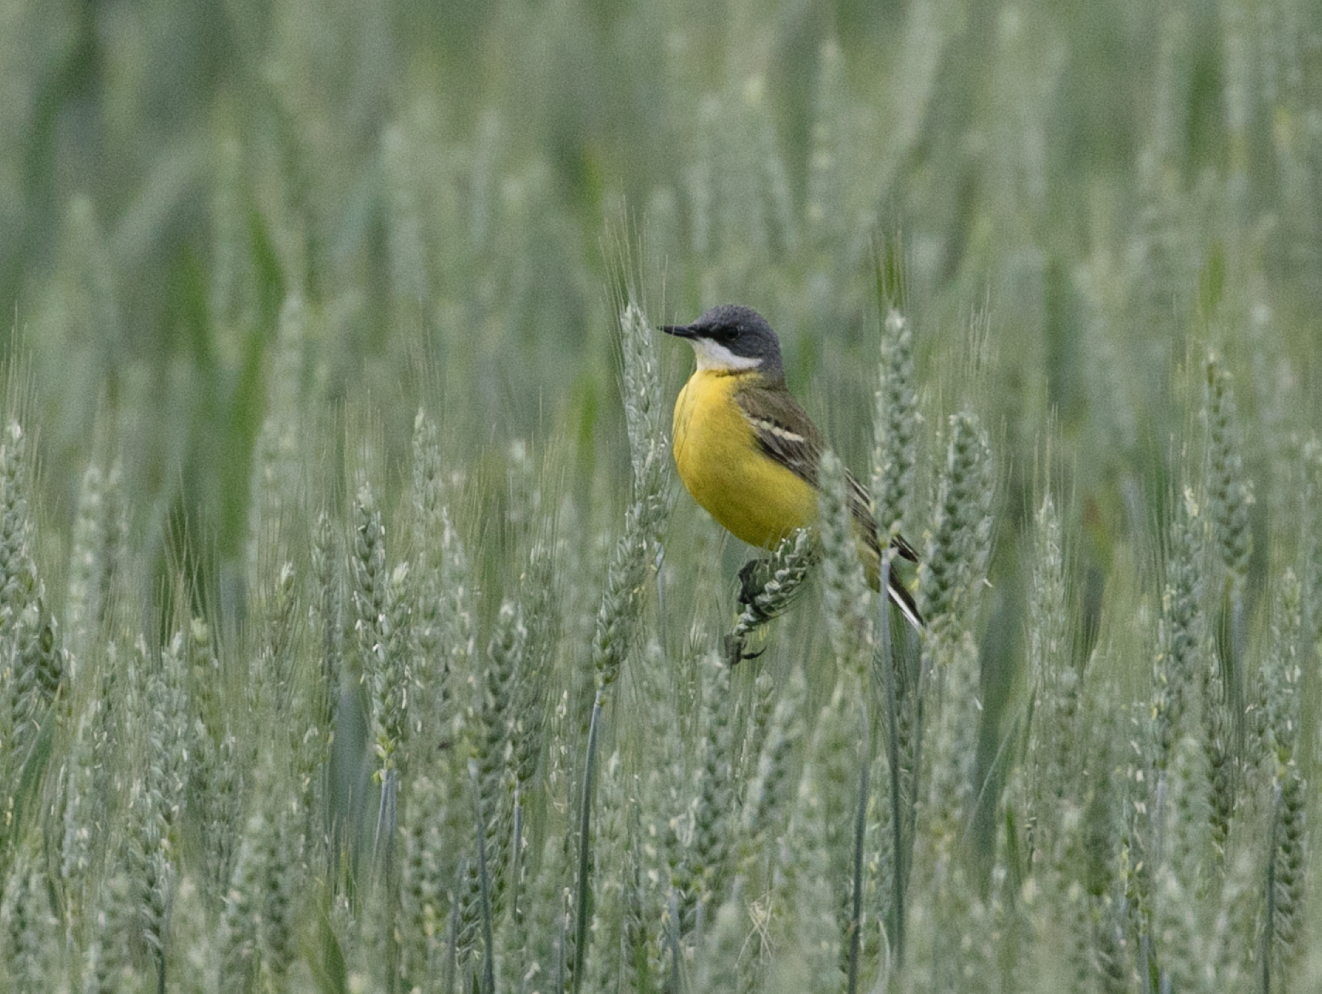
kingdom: Animalia
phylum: Chordata
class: Aves
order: Passeriformes
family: Motacillidae
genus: Motacilla
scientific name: Motacilla flava
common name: Western yellow wagtail
